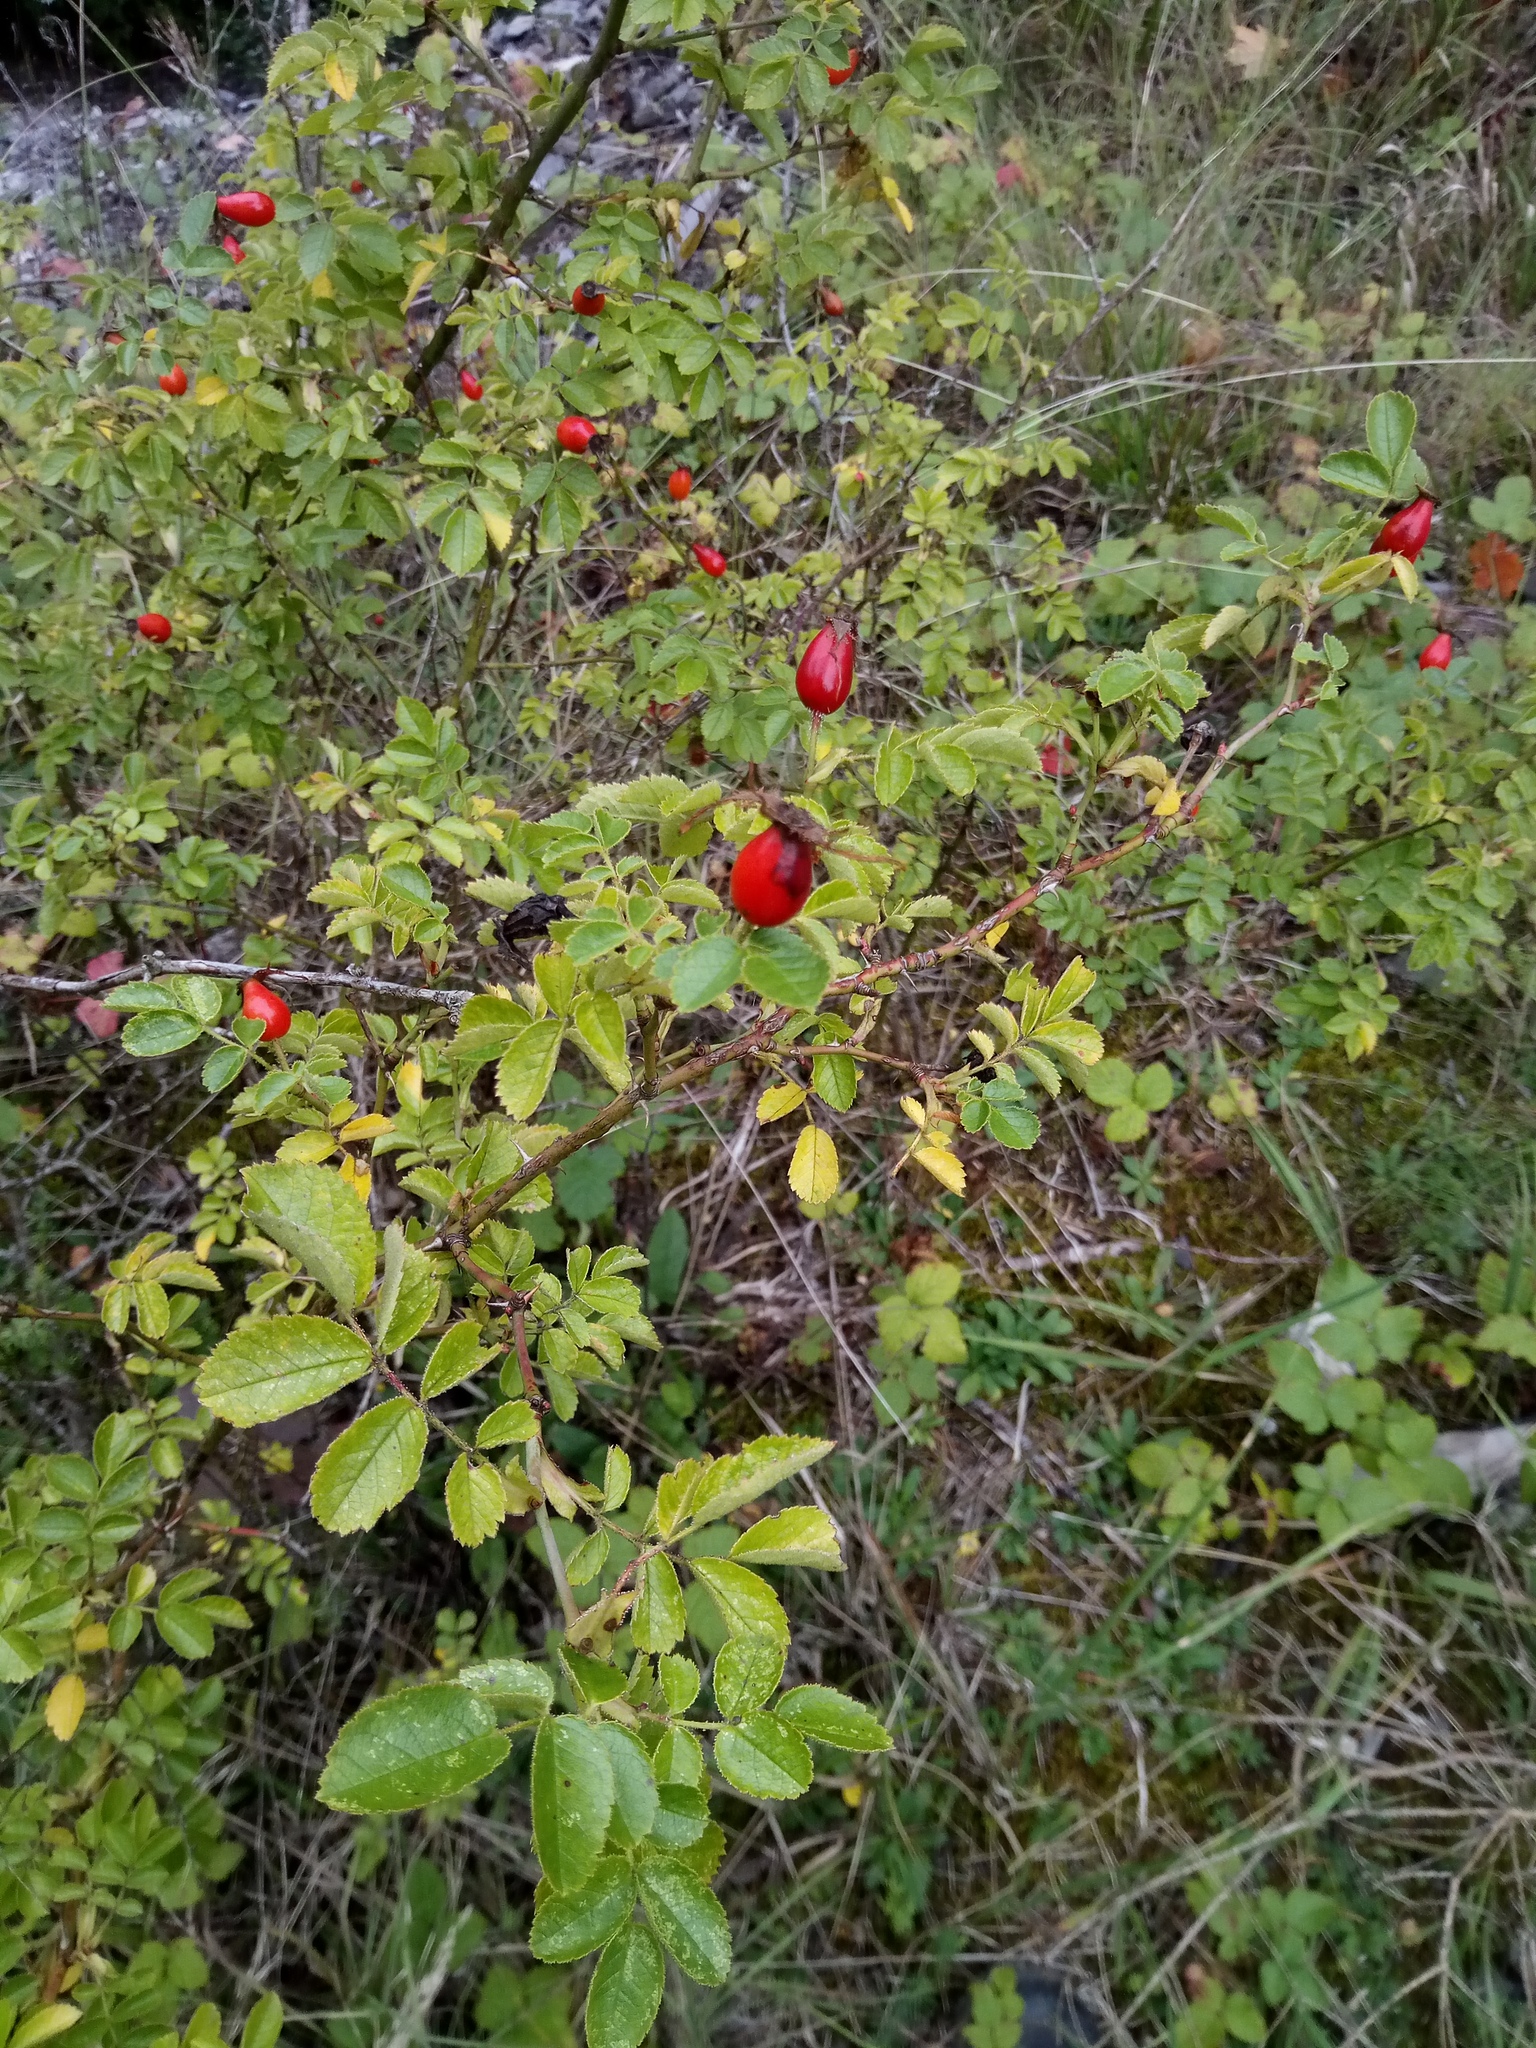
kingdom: Plantae
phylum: Tracheophyta
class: Magnoliopsida
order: Rosales
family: Rosaceae
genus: Rosa
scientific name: Rosa rubiginosa
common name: Sweet-briar
